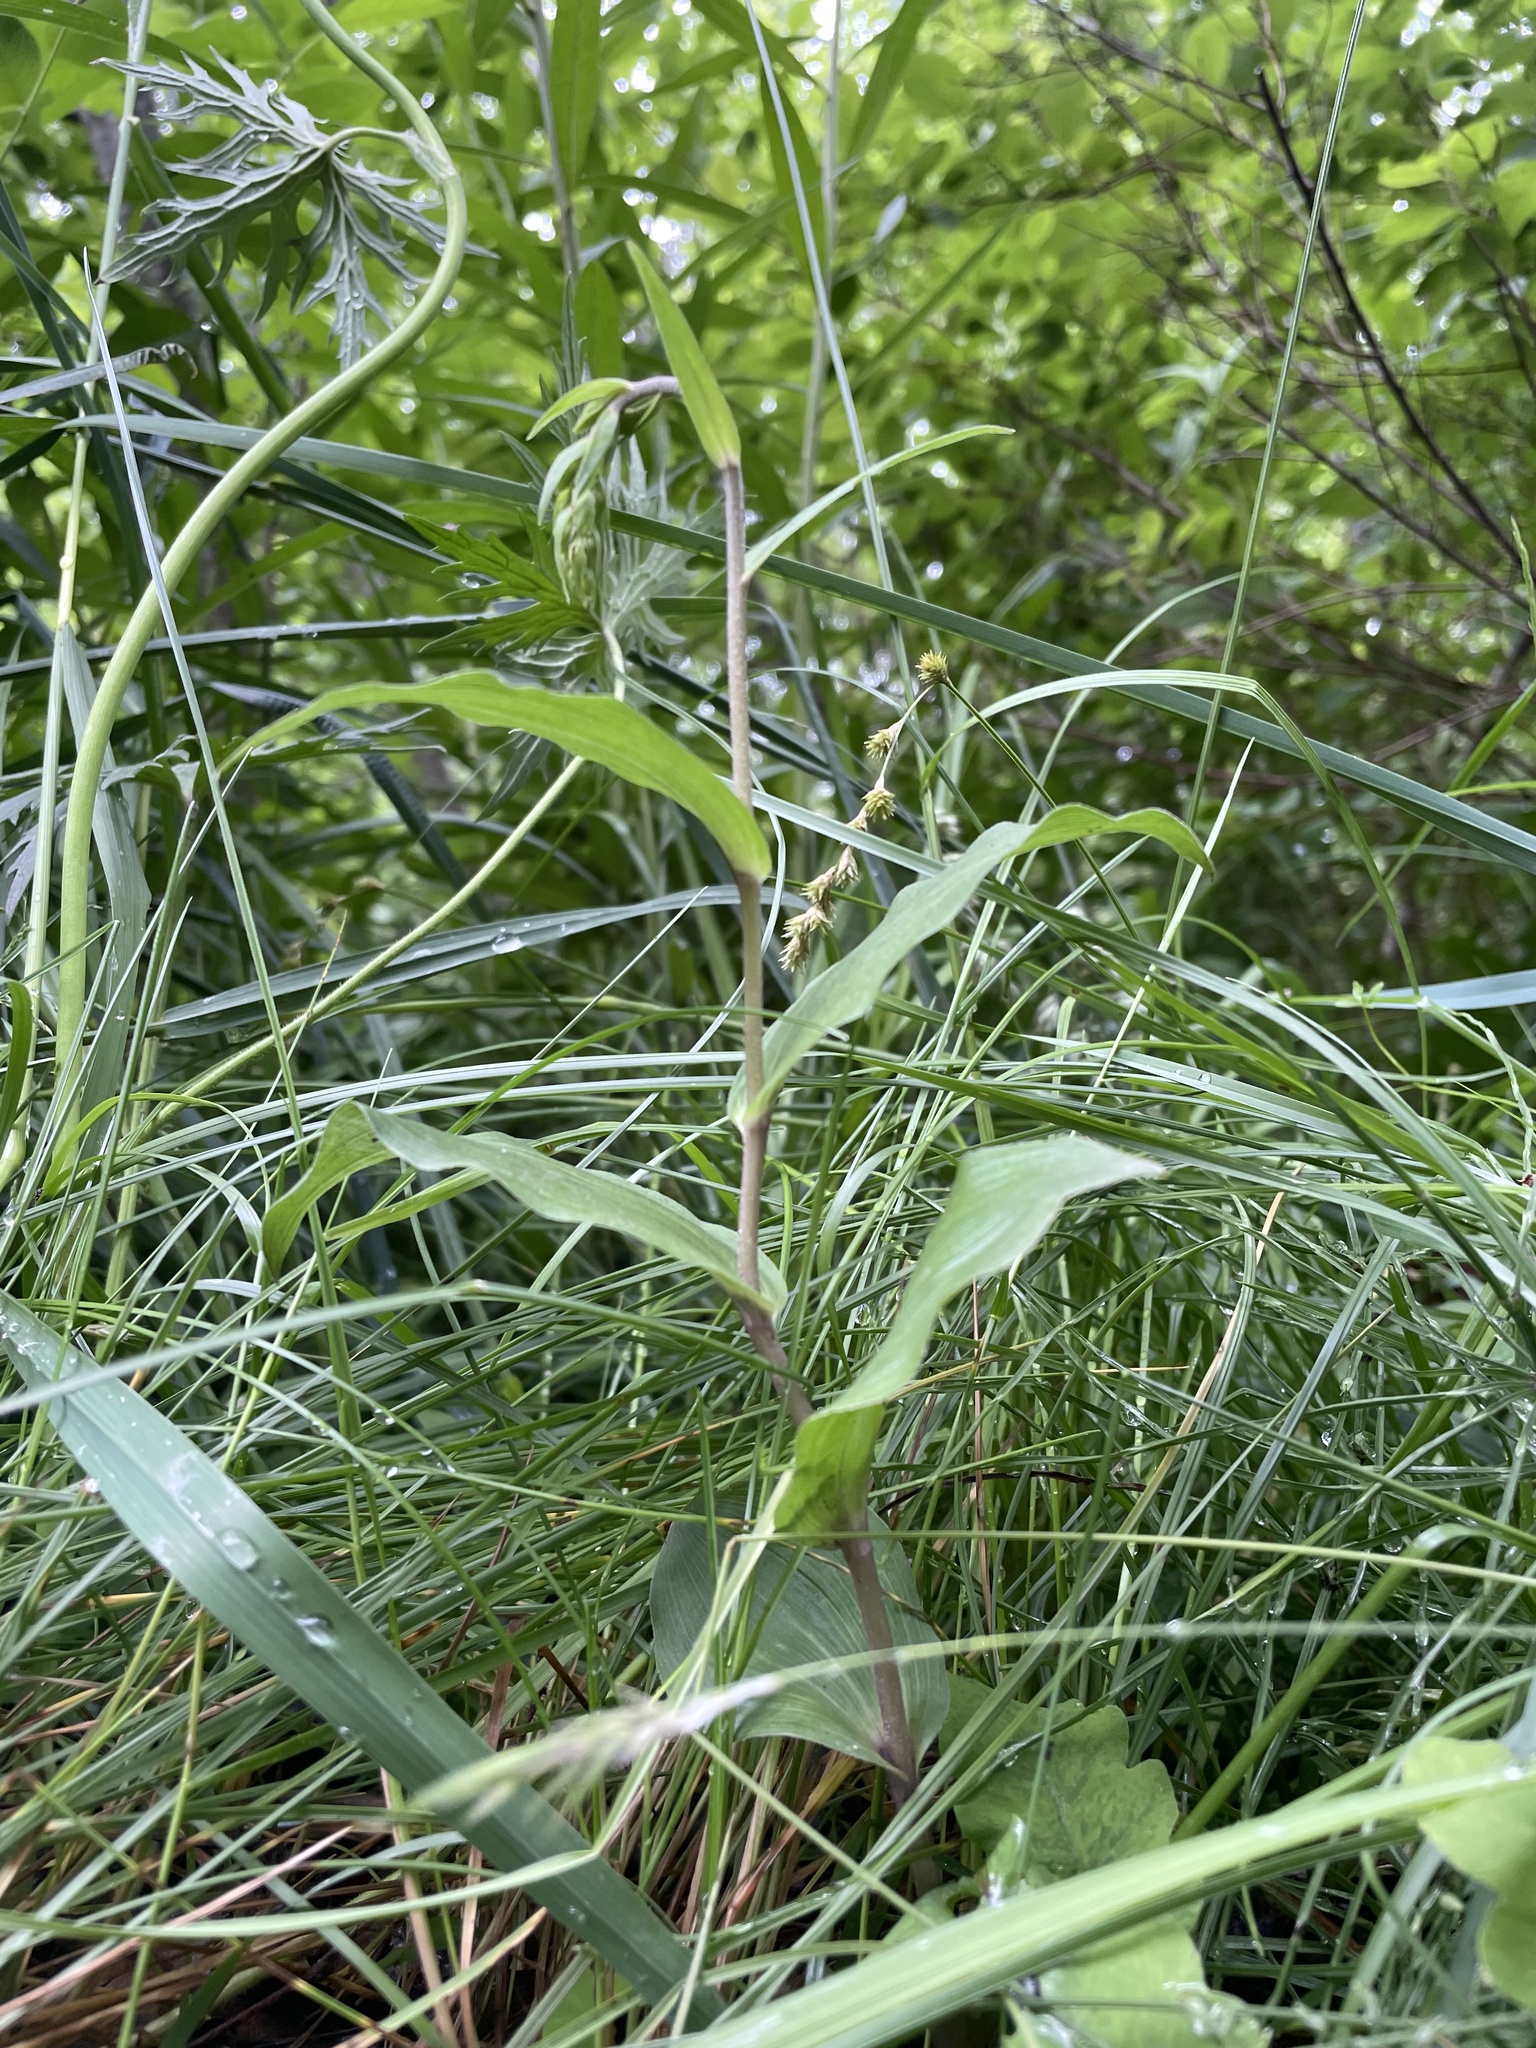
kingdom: Plantae
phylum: Tracheophyta
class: Liliopsida
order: Asparagales
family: Orchidaceae
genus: Epipactis
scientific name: Epipactis helleborine
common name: Broad-leaved helleborine
